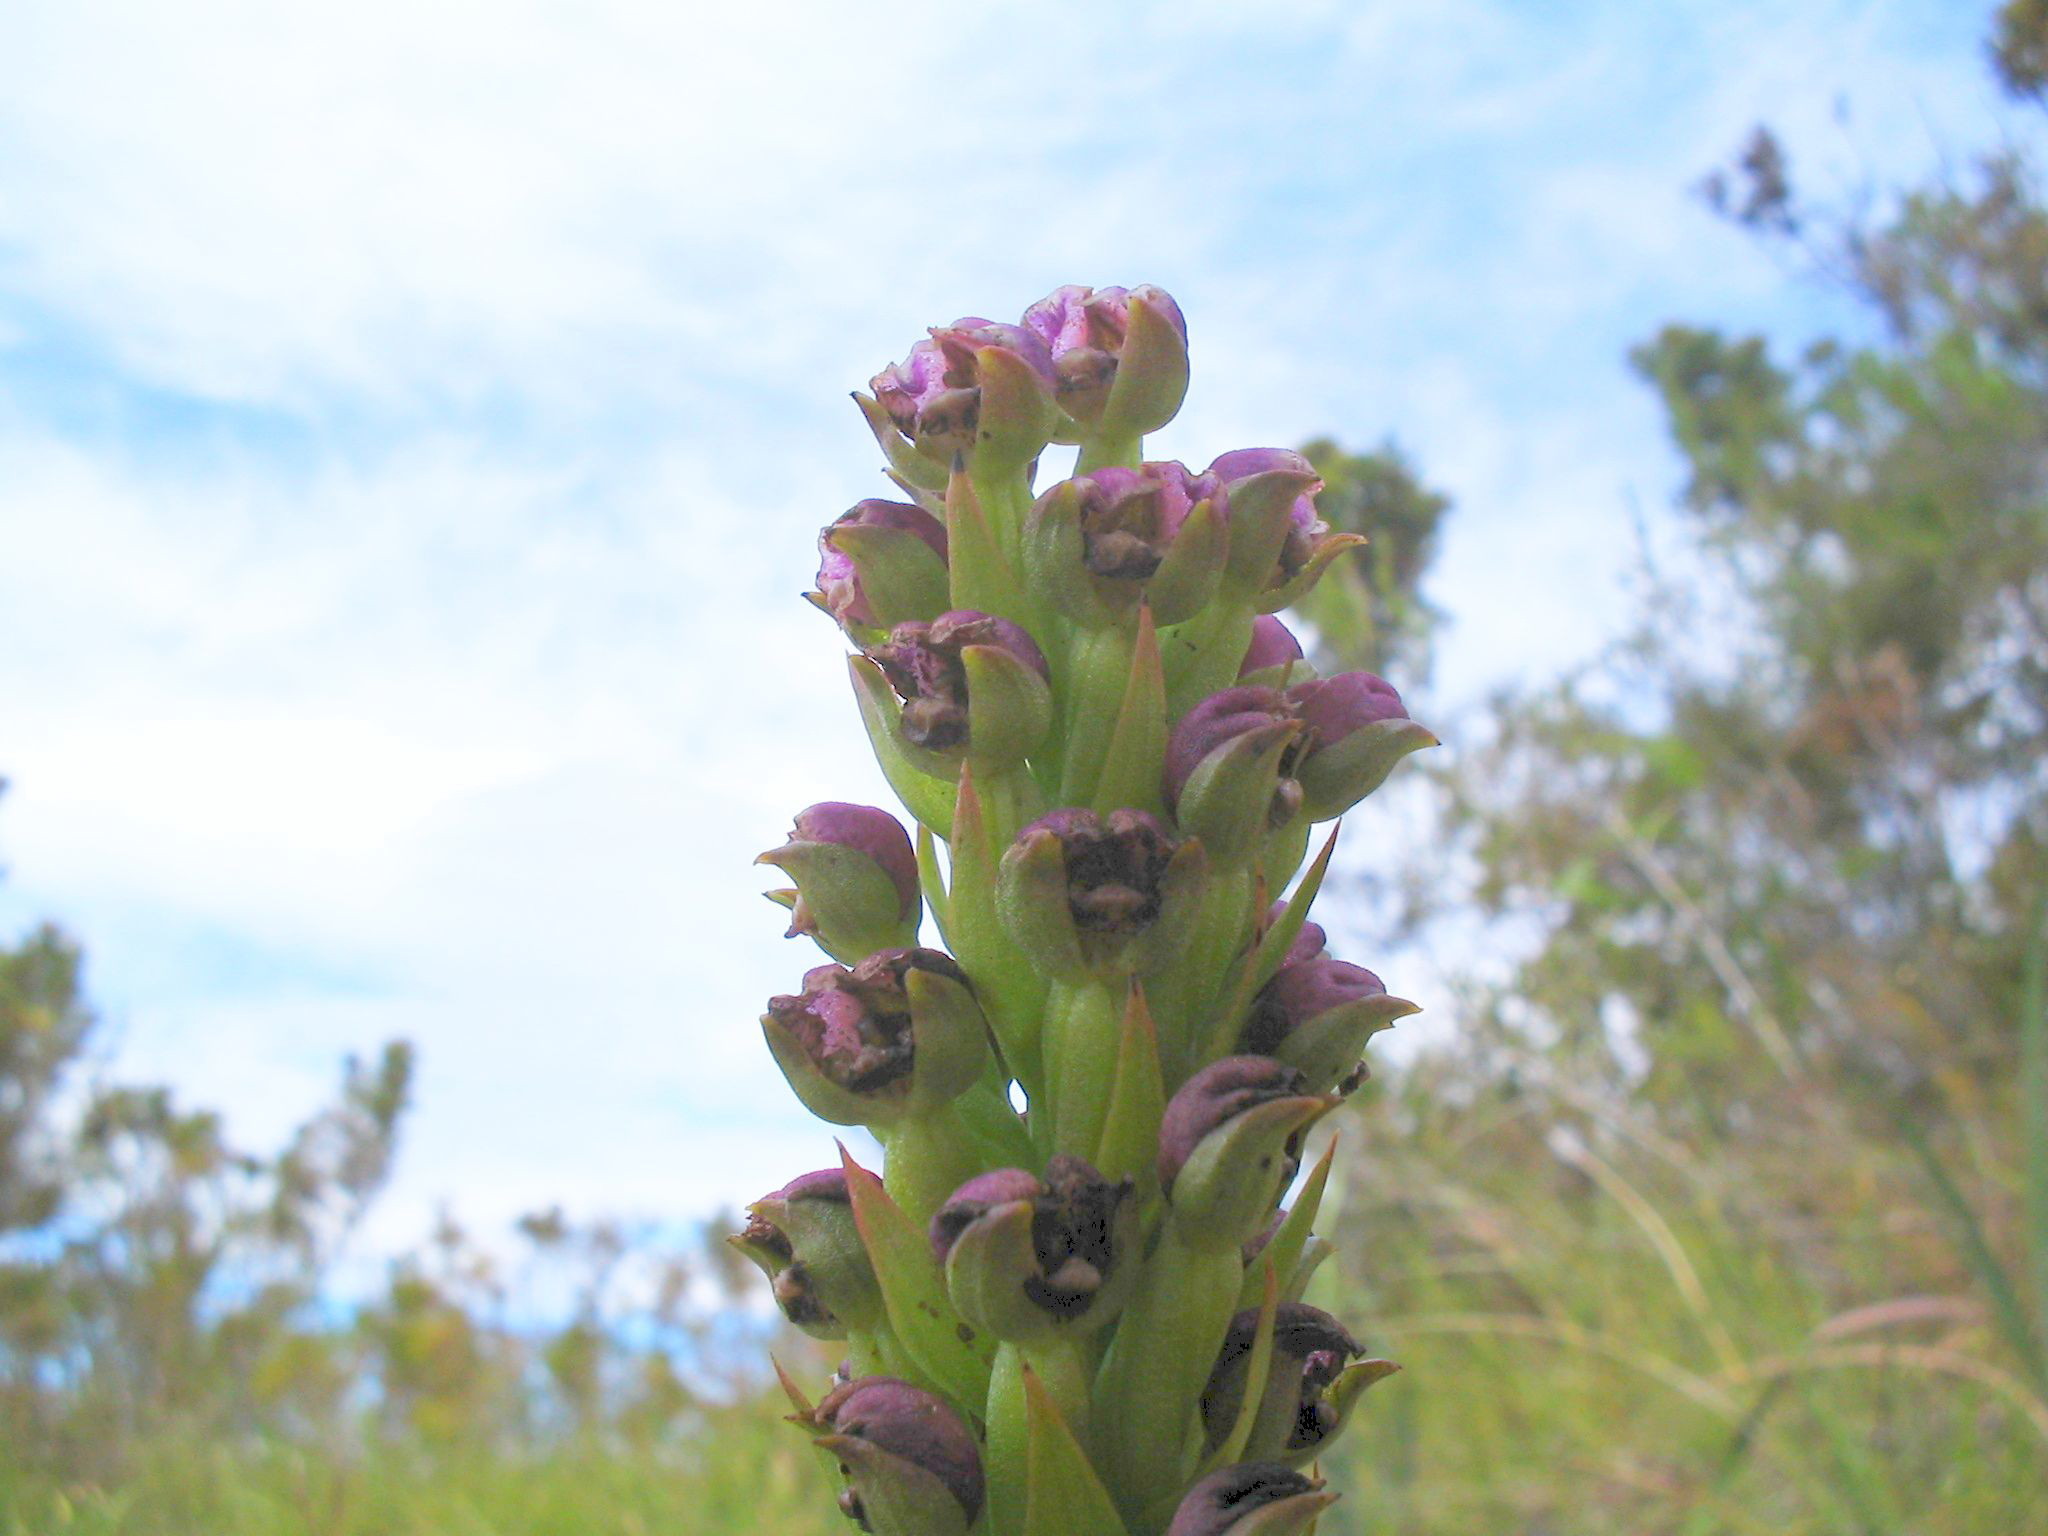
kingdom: Plantae
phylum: Tracheophyta
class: Liliopsida
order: Asparagales
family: Orchidaceae
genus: Evotella
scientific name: Evotella carnosa
